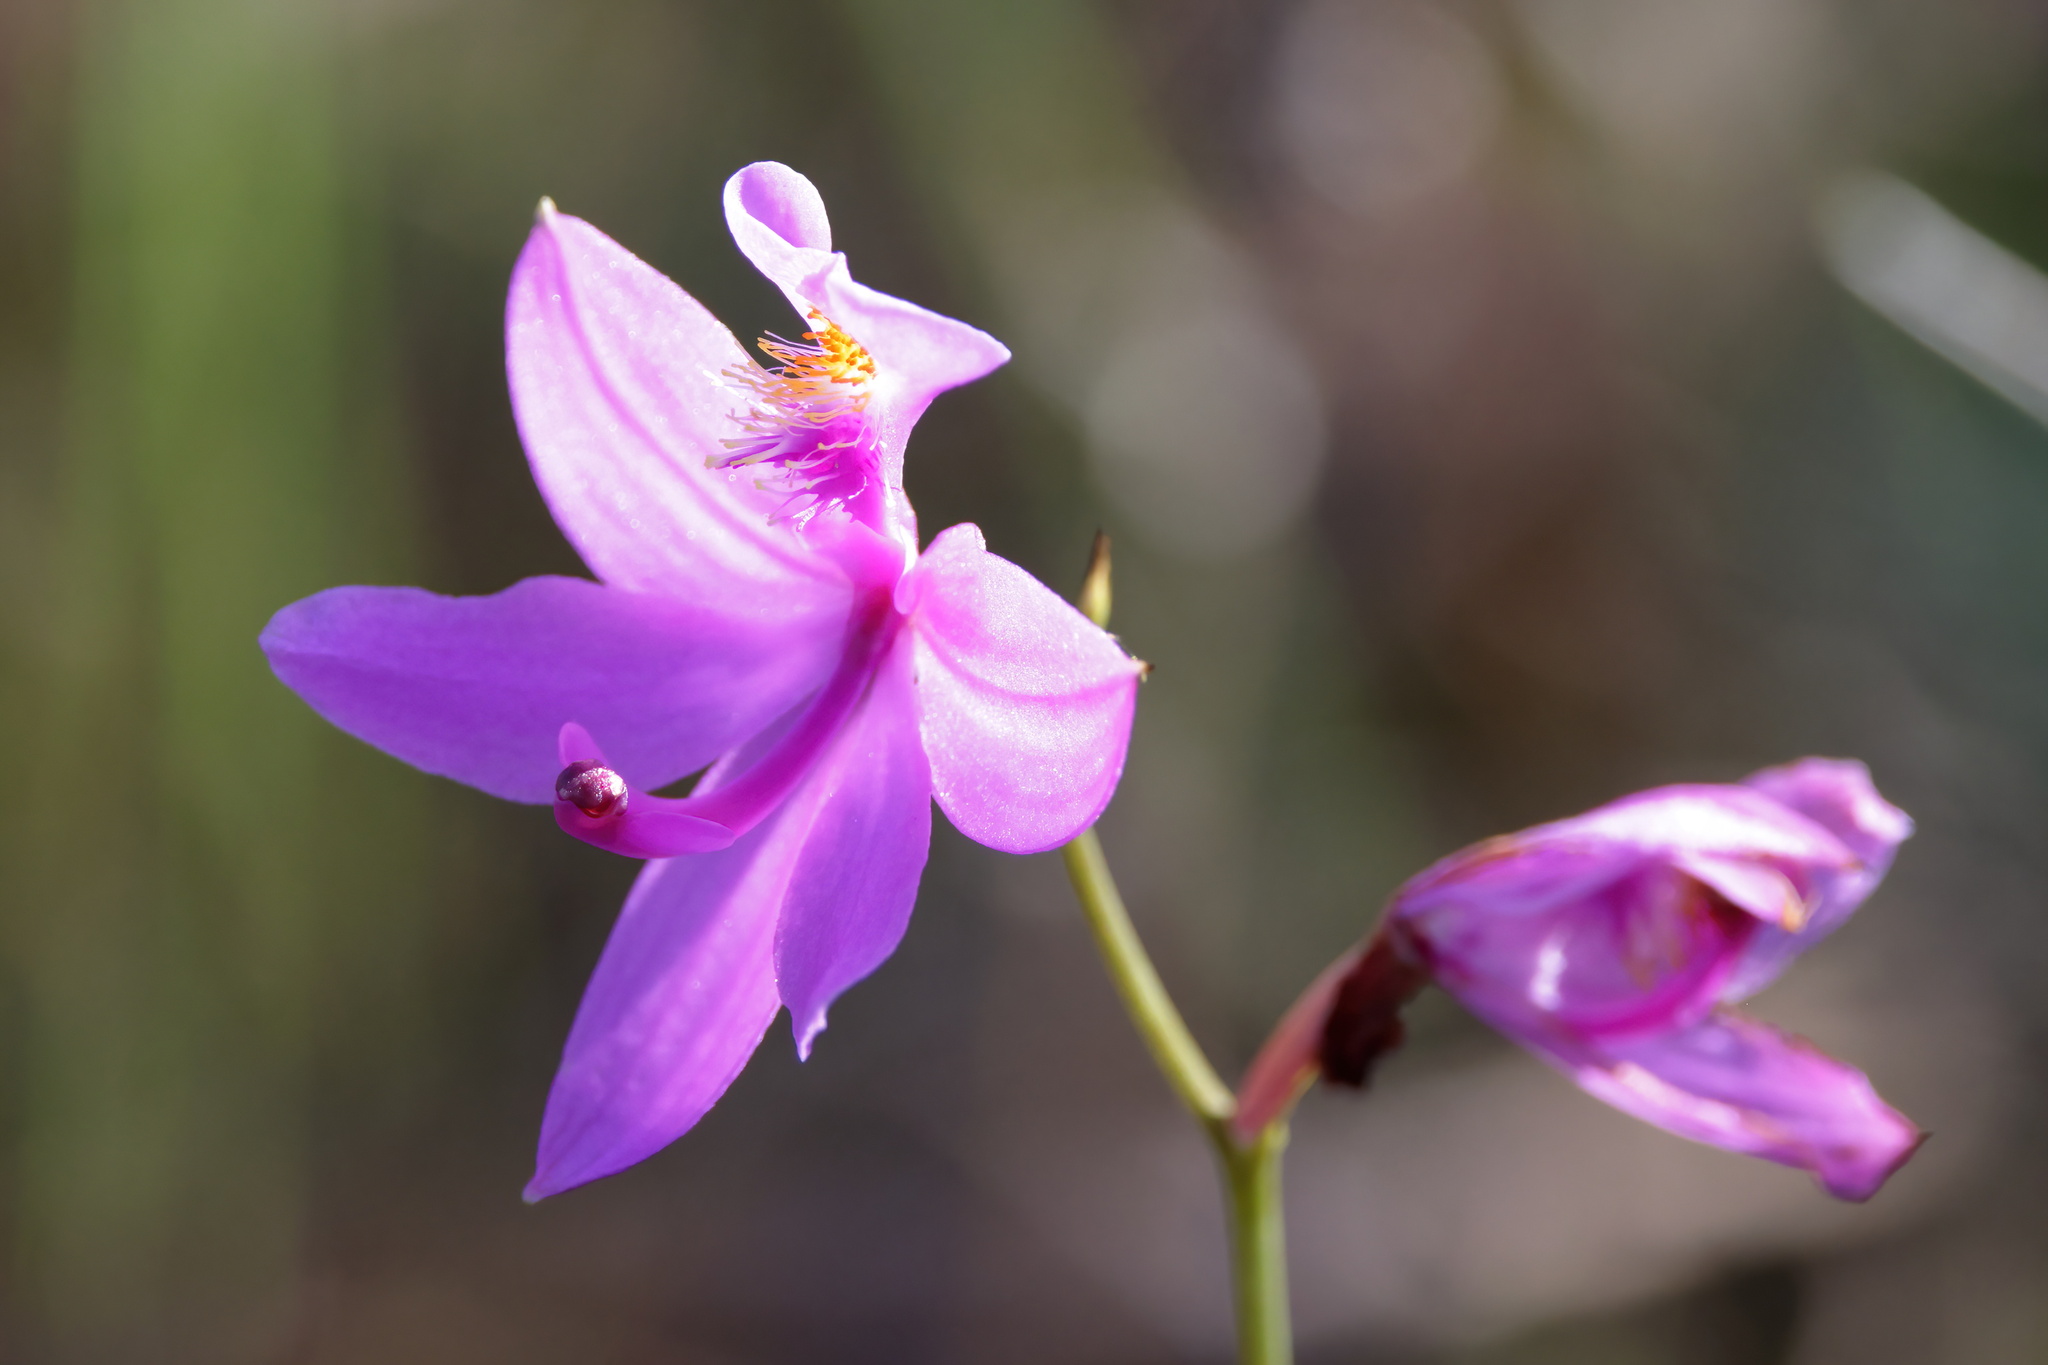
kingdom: Plantae
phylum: Tracheophyta
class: Liliopsida
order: Asparagales
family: Orchidaceae
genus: Calopogon
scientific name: Calopogon tuberosus
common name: Grass-pink
